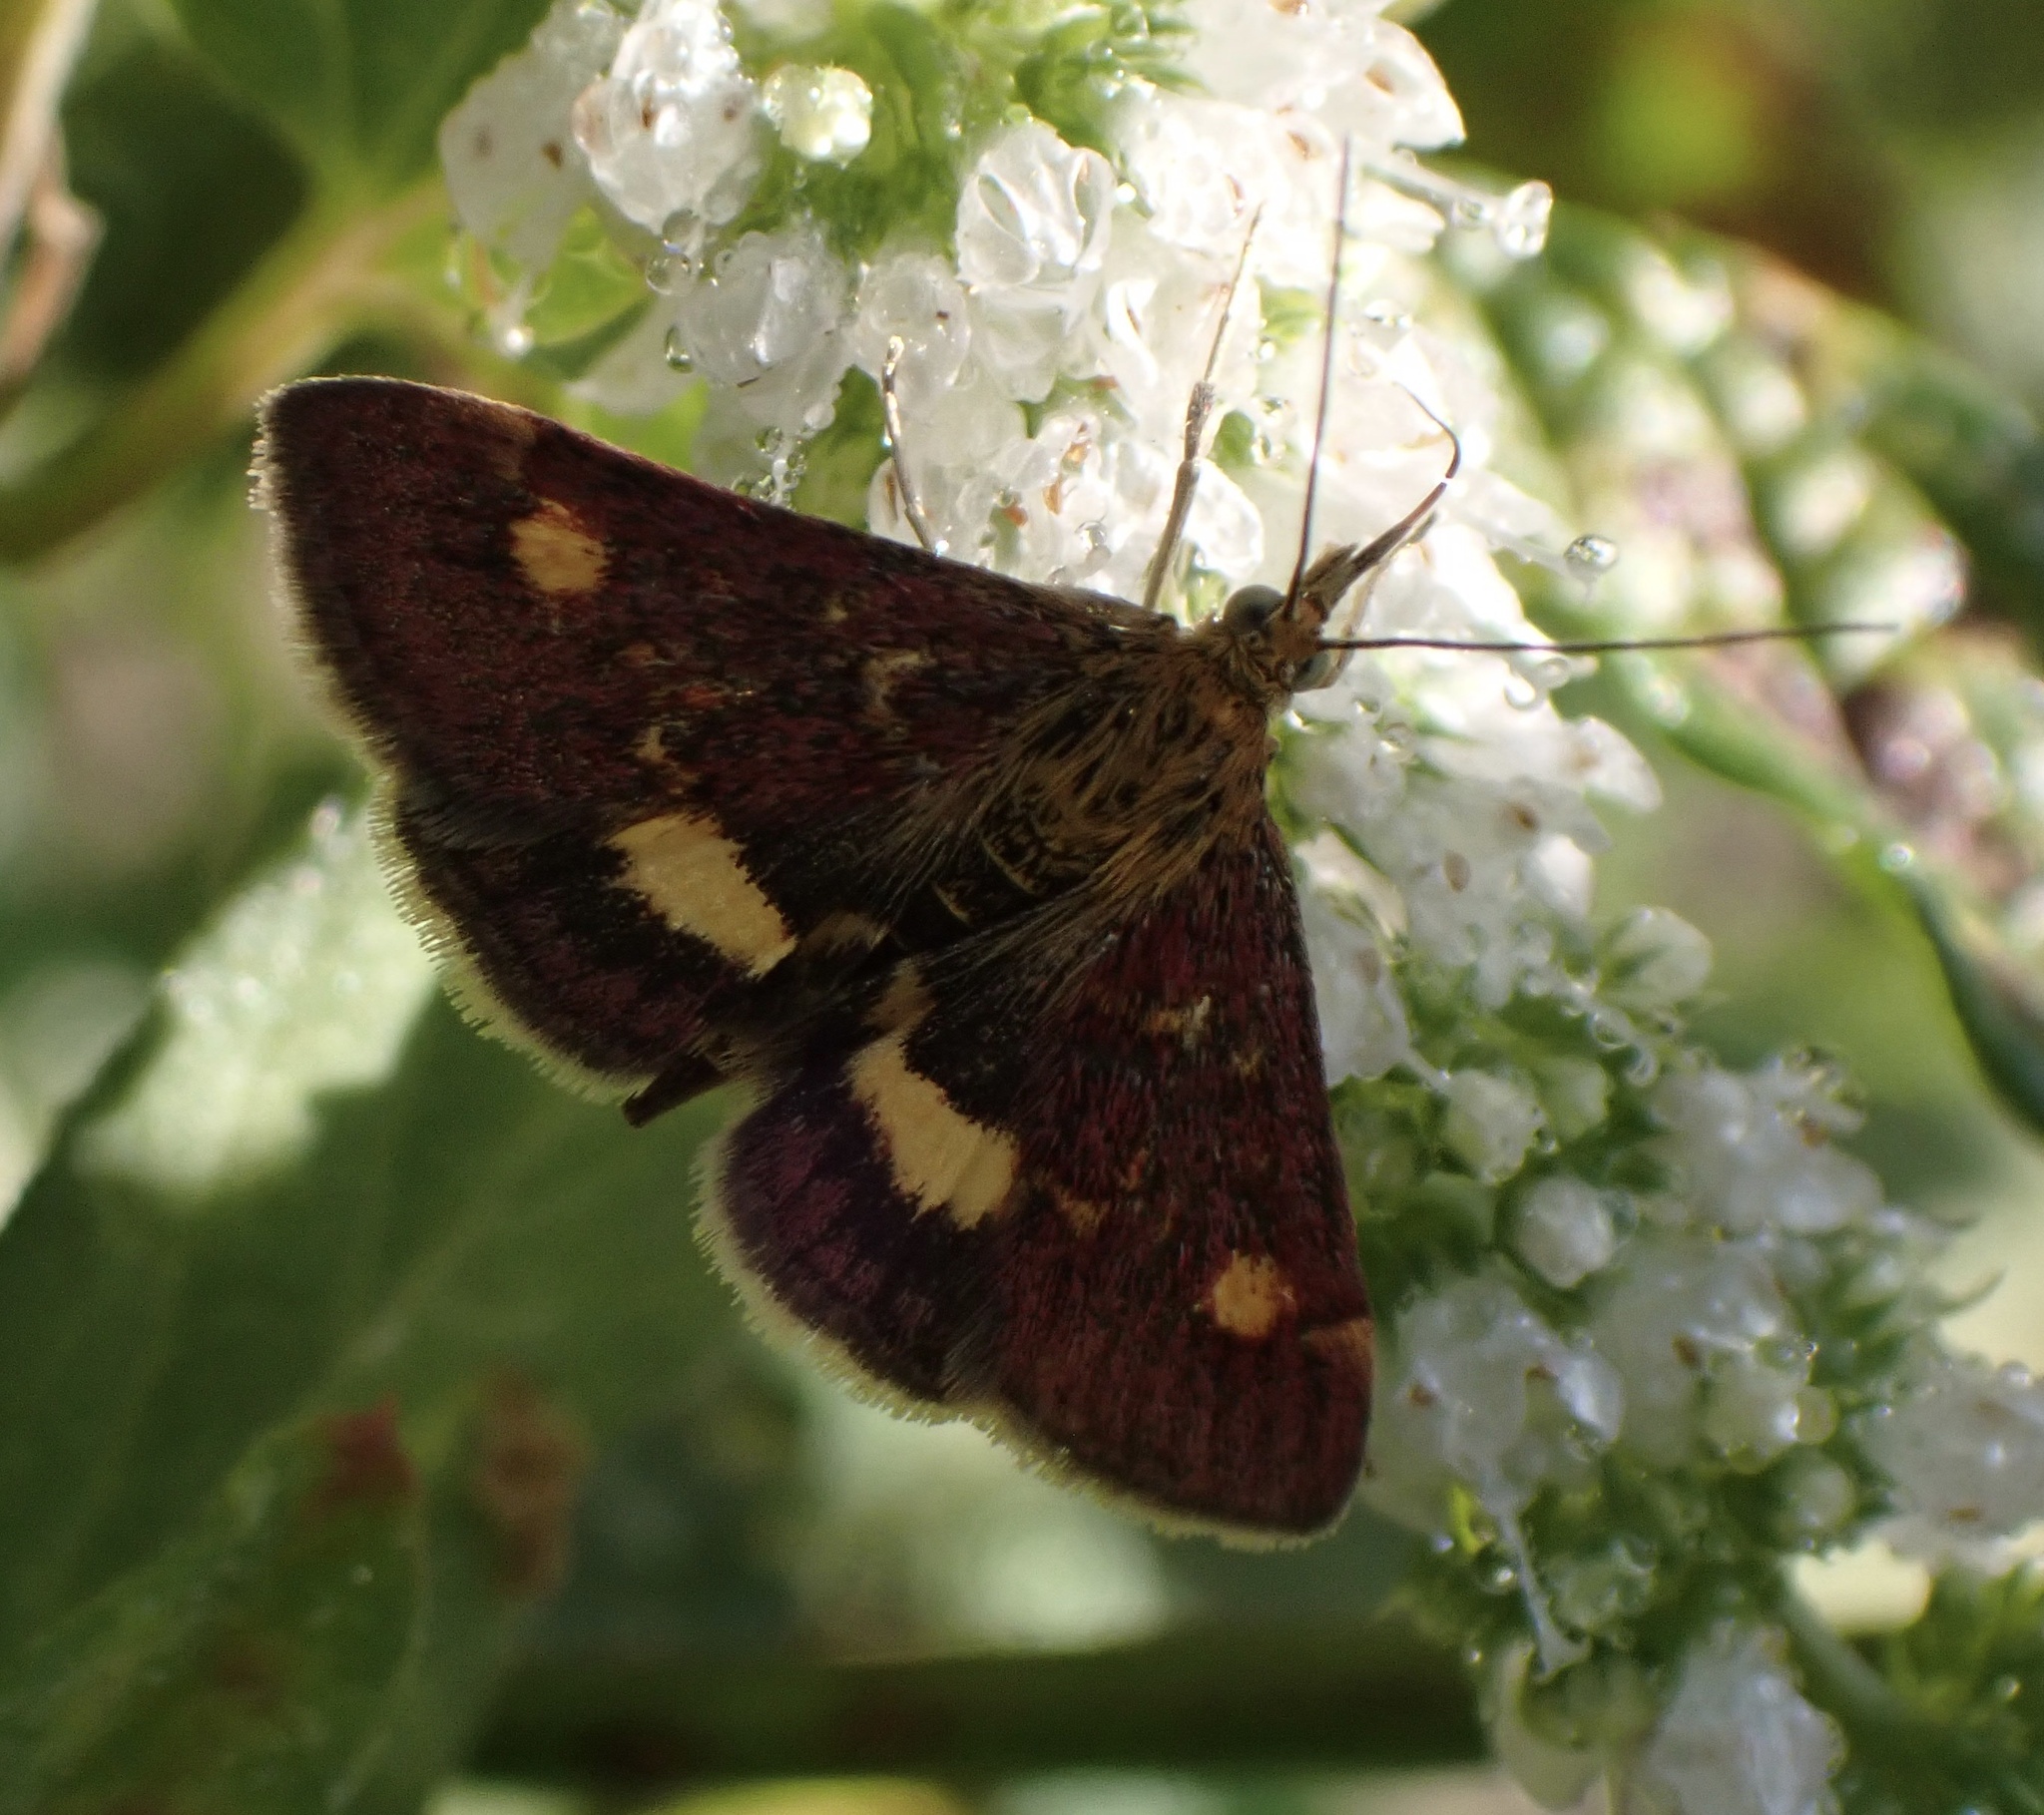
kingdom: Animalia
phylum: Arthropoda
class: Insecta
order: Lepidoptera
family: Crambidae
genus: Pyrausta
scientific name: Pyrausta aurata
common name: Small purple & gold
